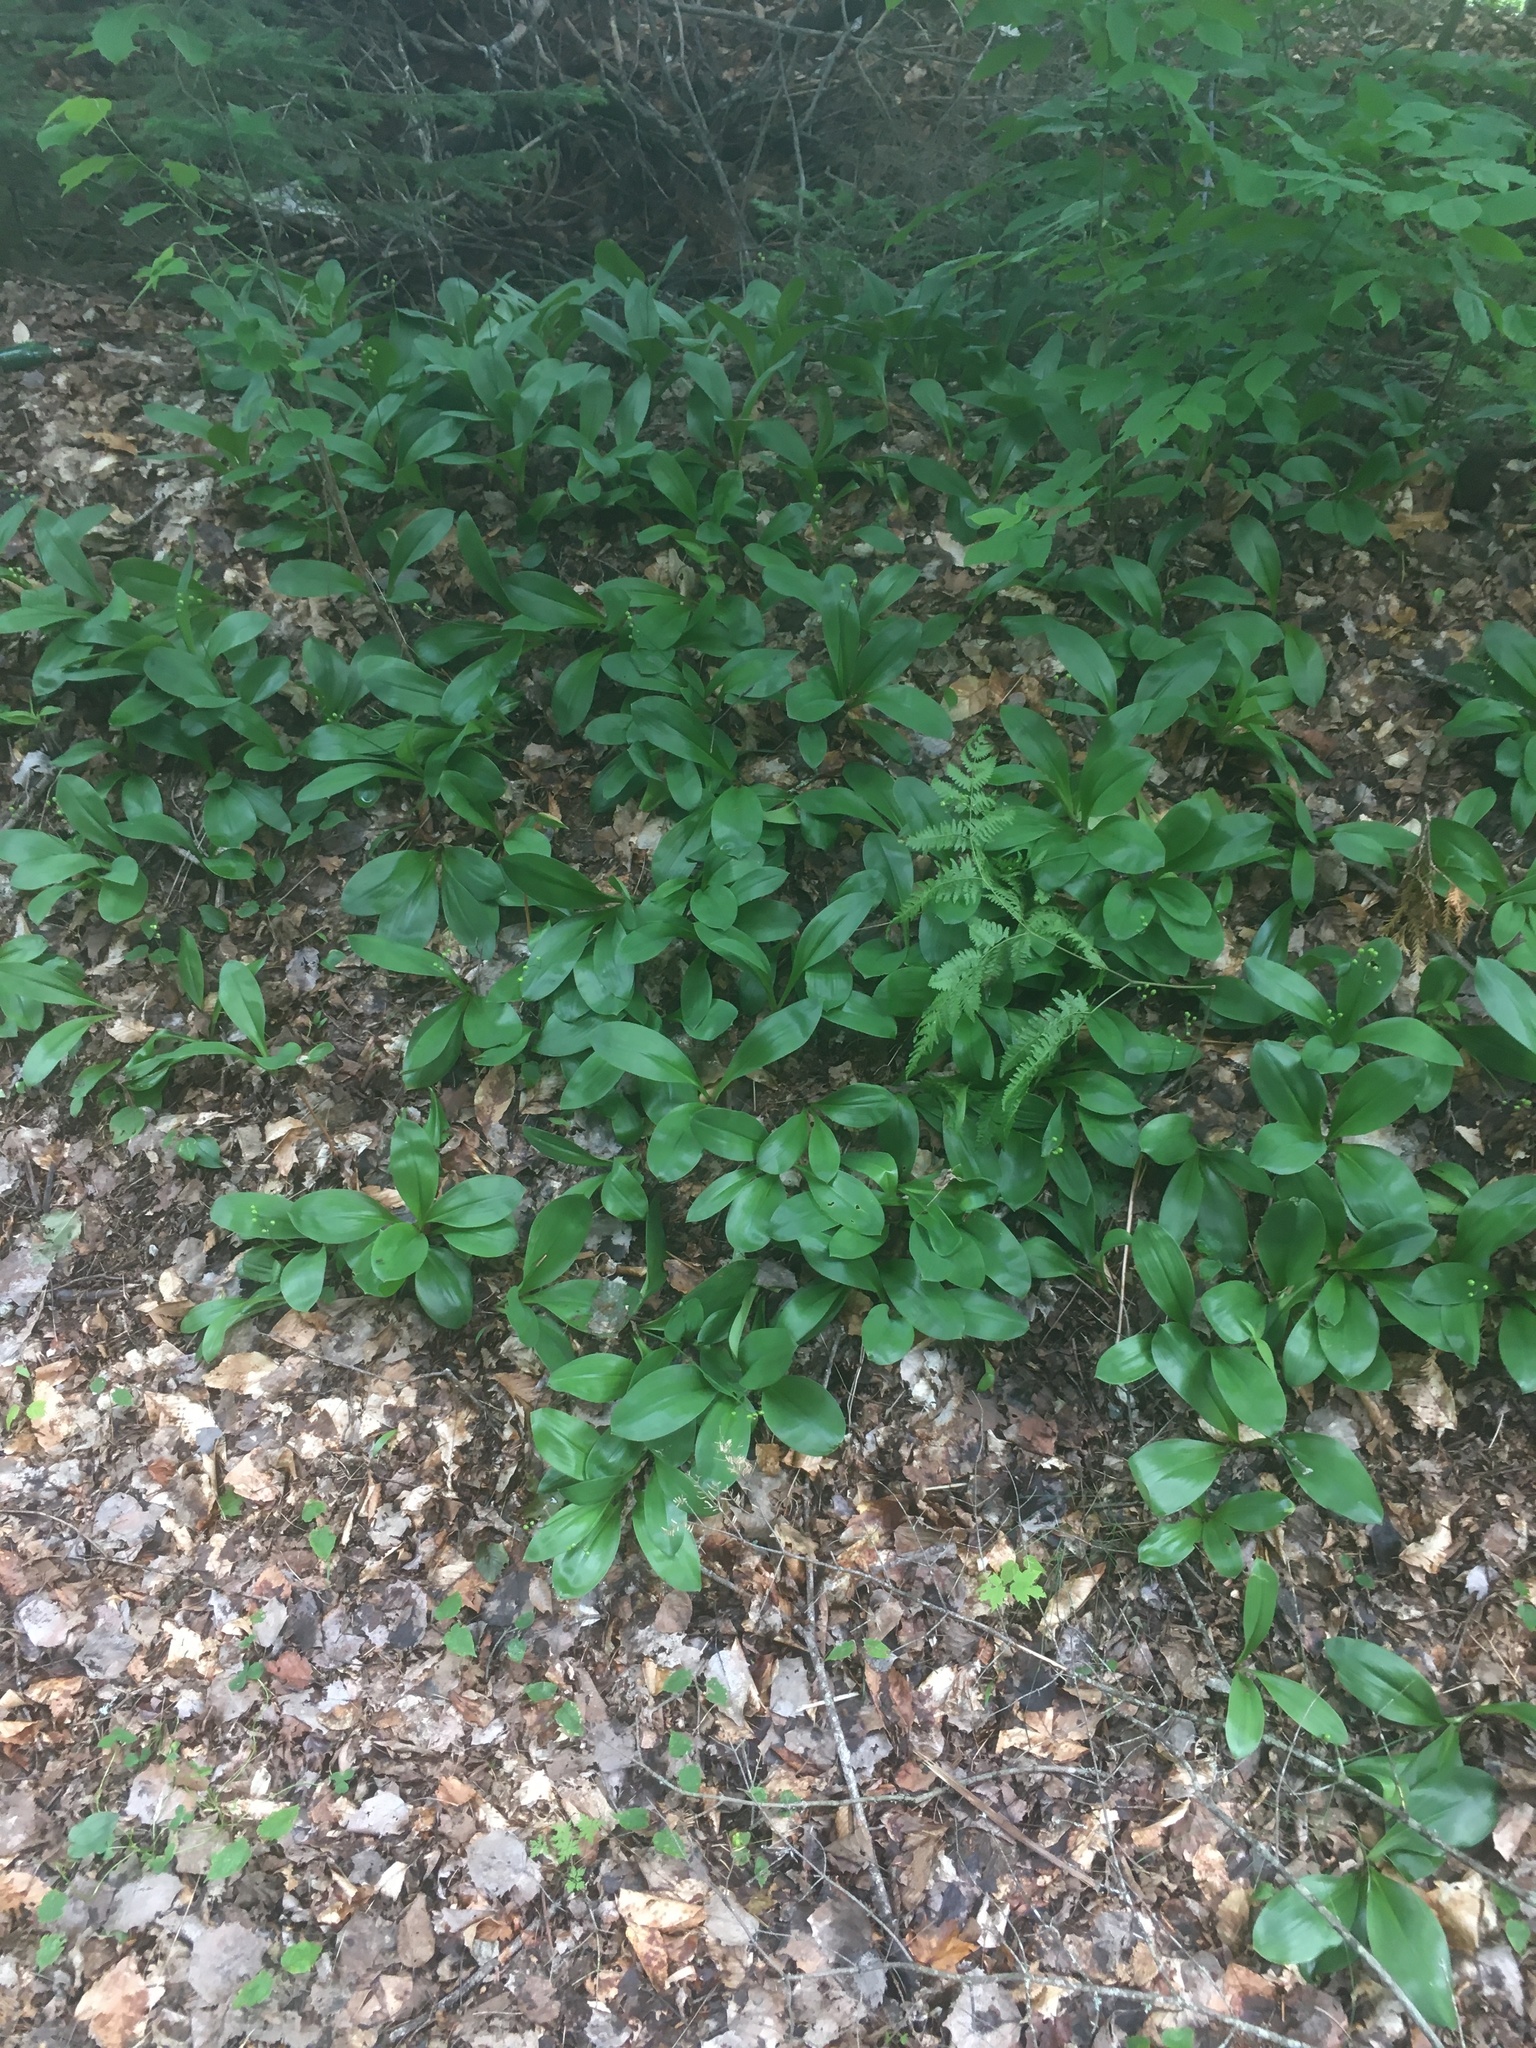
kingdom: Plantae
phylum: Tracheophyta
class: Liliopsida
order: Liliales
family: Liliaceae
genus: Clintonia
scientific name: Clintonia borealis
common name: Yellow clintonia
